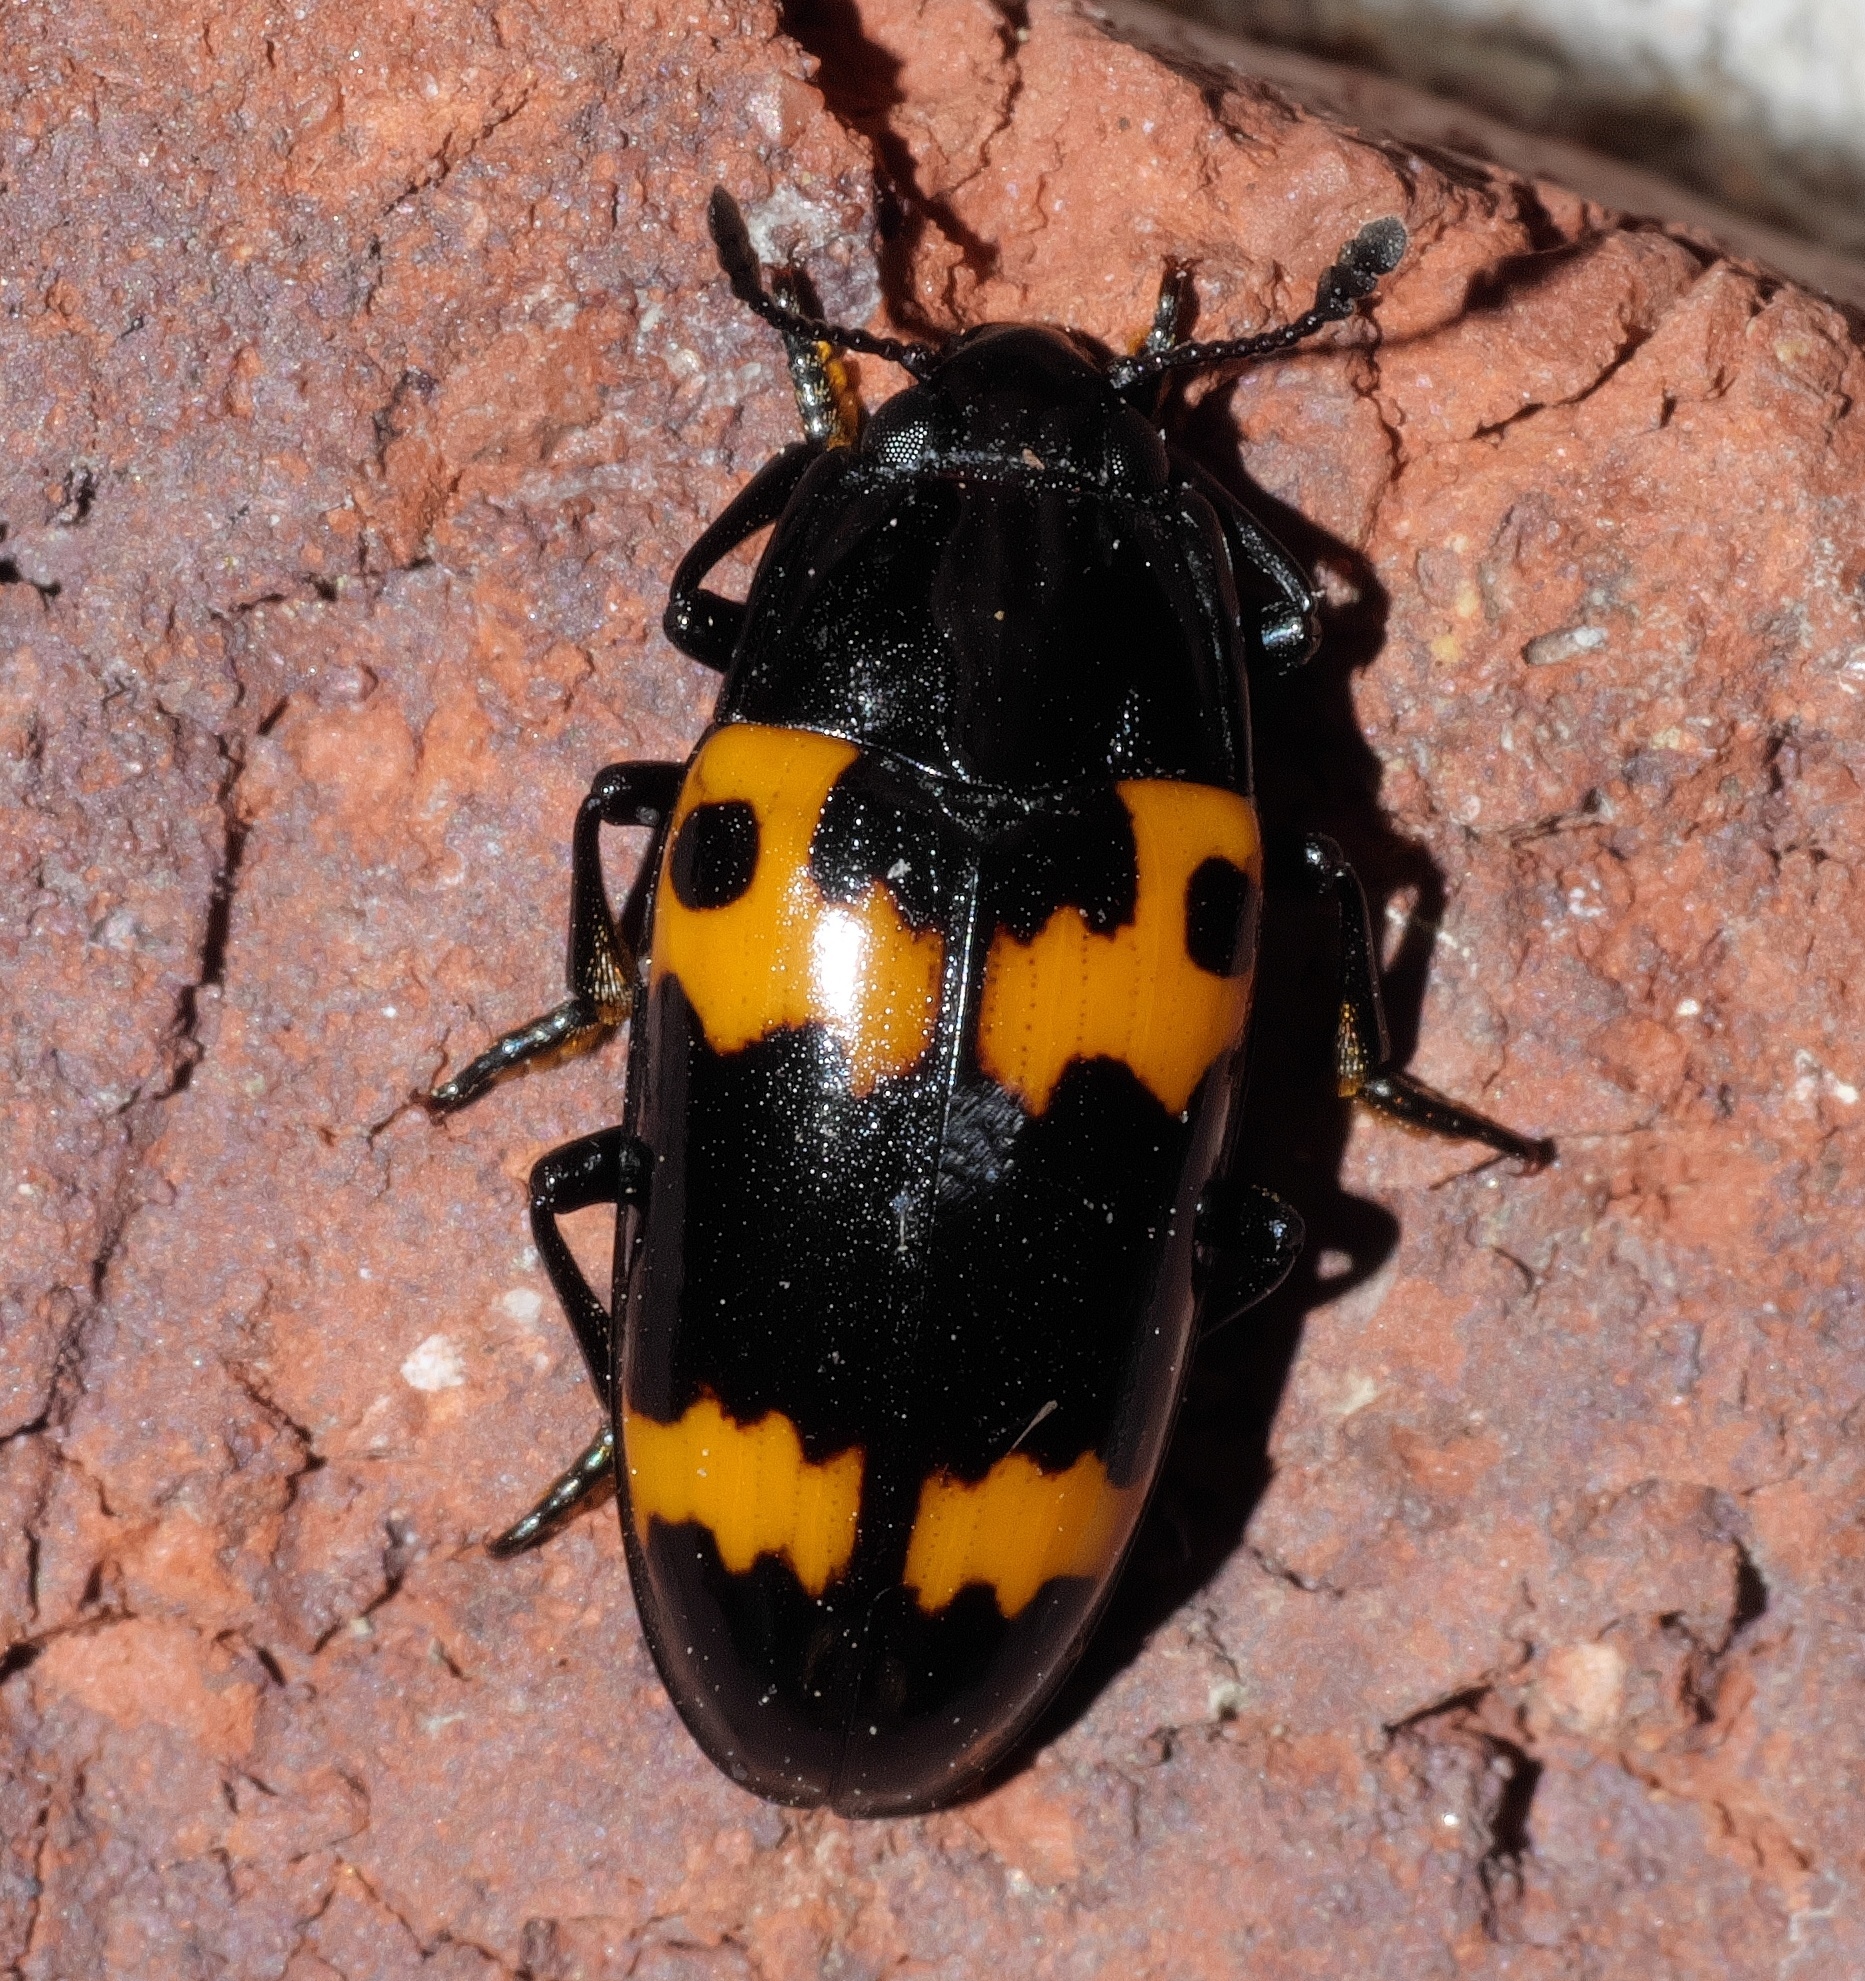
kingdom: Animalia
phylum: Arthropoda
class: Insecta
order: Coleoptera
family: Erotylidae
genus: Megalodacne
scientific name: Megalodacne fasciata
